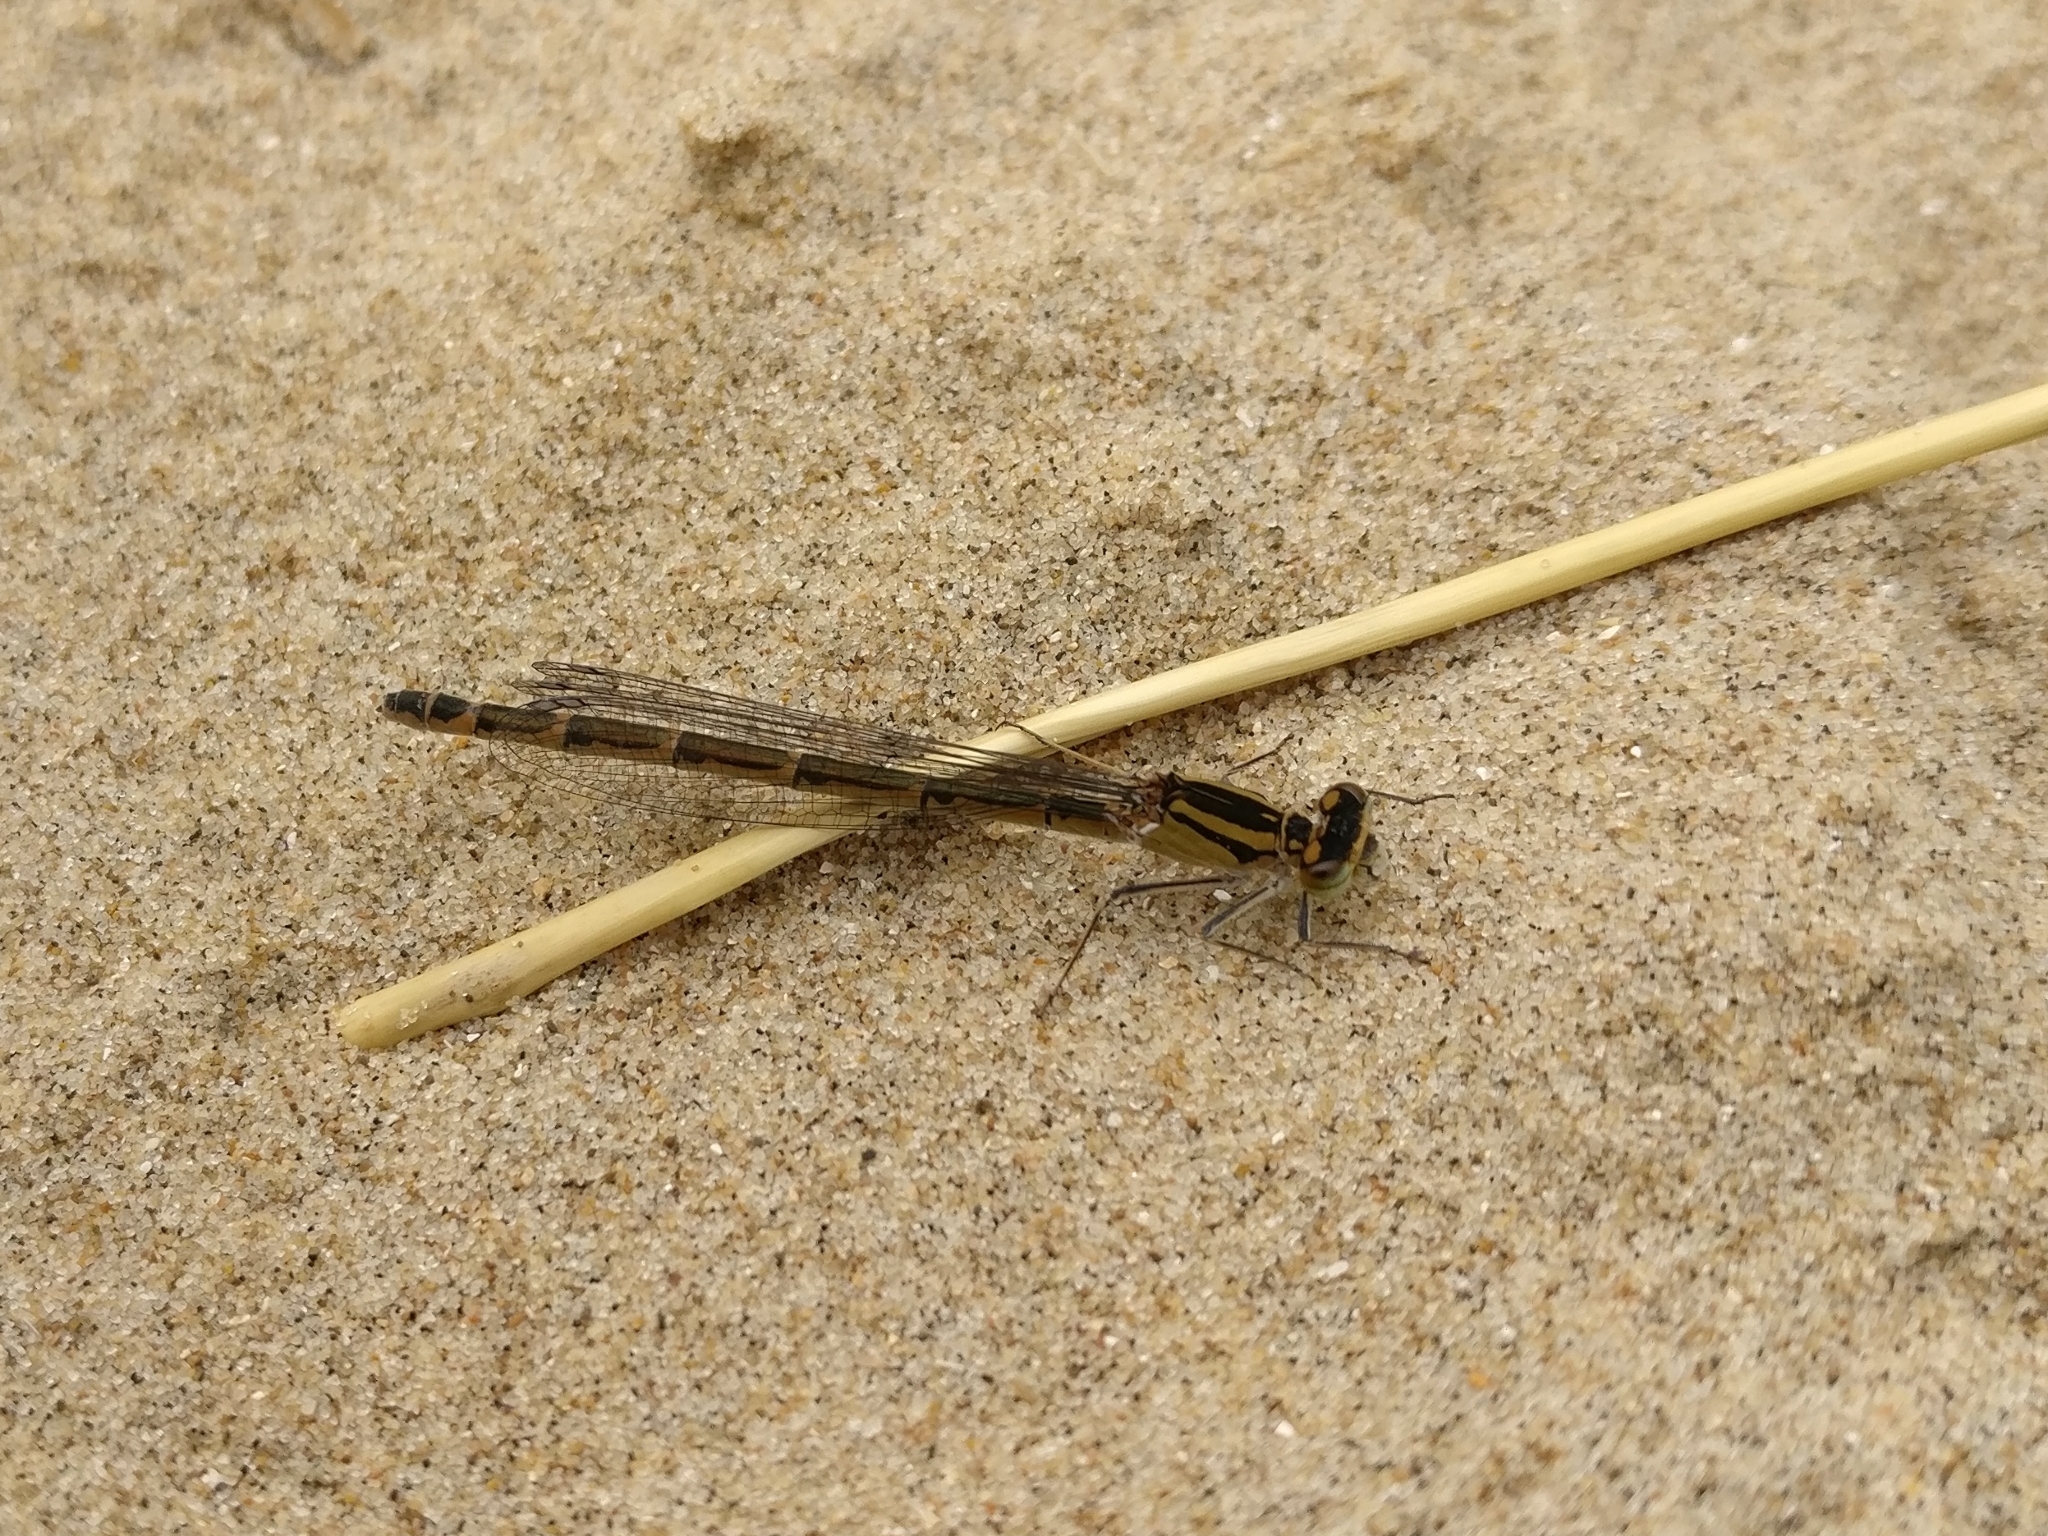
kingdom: Animalia
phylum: Arthropoda
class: Insecta
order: Odonata
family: Coenagrionidae
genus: Enallagma
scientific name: Enallagma cyathigerum
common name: Common blue damselfly
